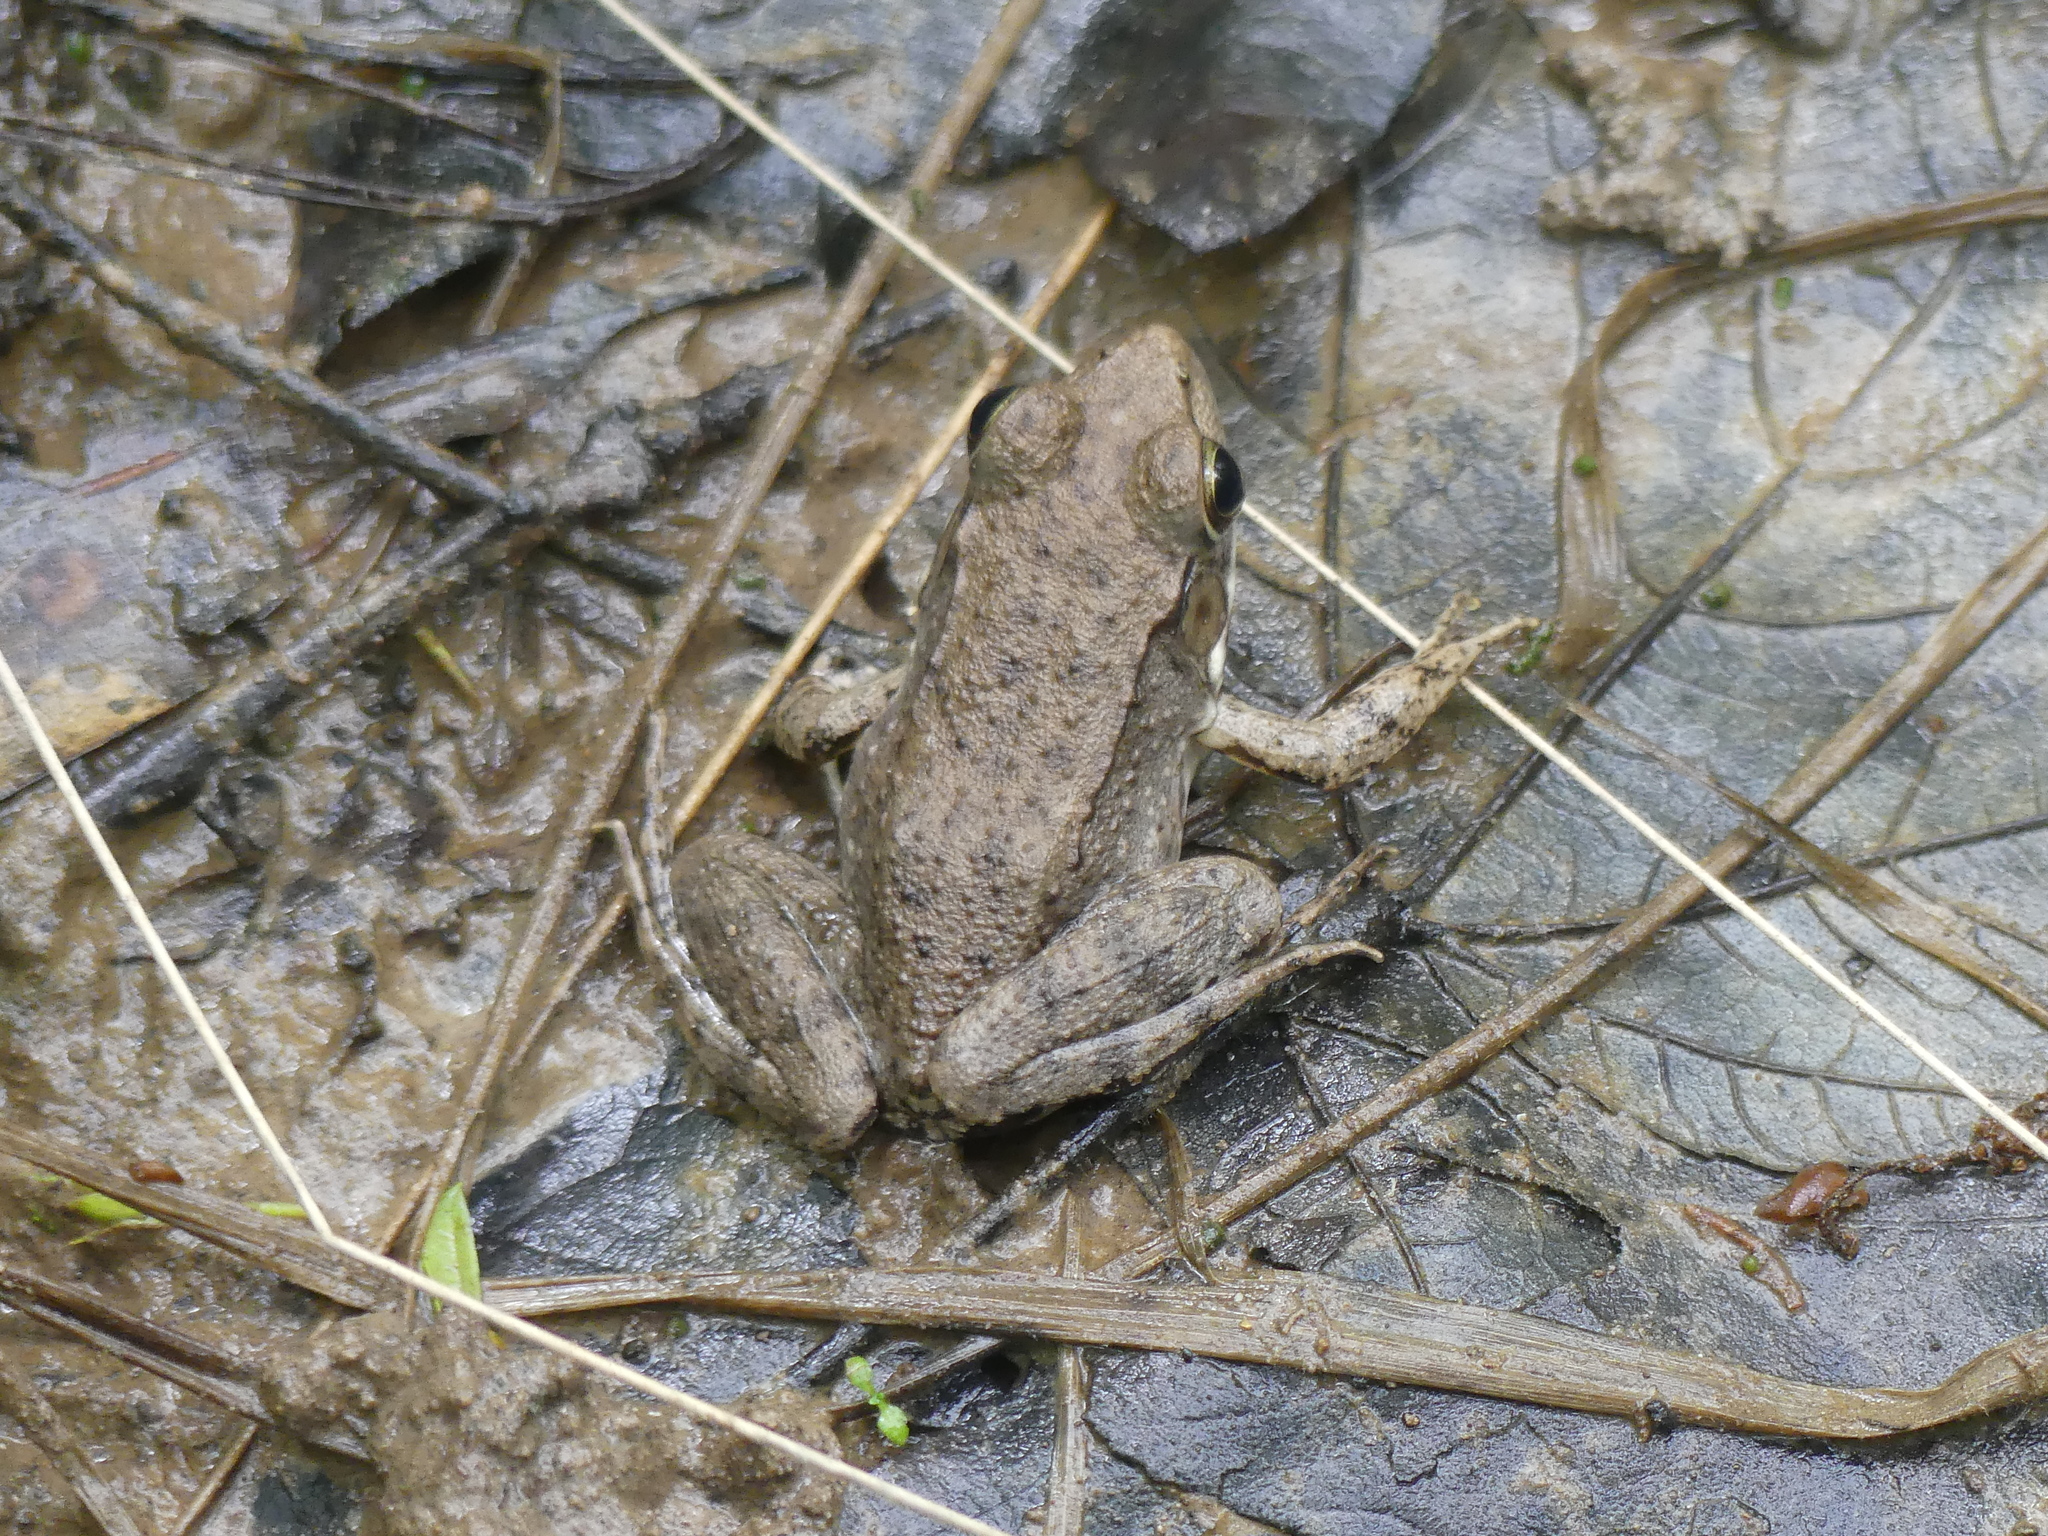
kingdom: Animalia
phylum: Chordata
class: Amphibia
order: Anura
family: Ranidae
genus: Lithobates
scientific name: Lithobates clamitans
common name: Green frog
